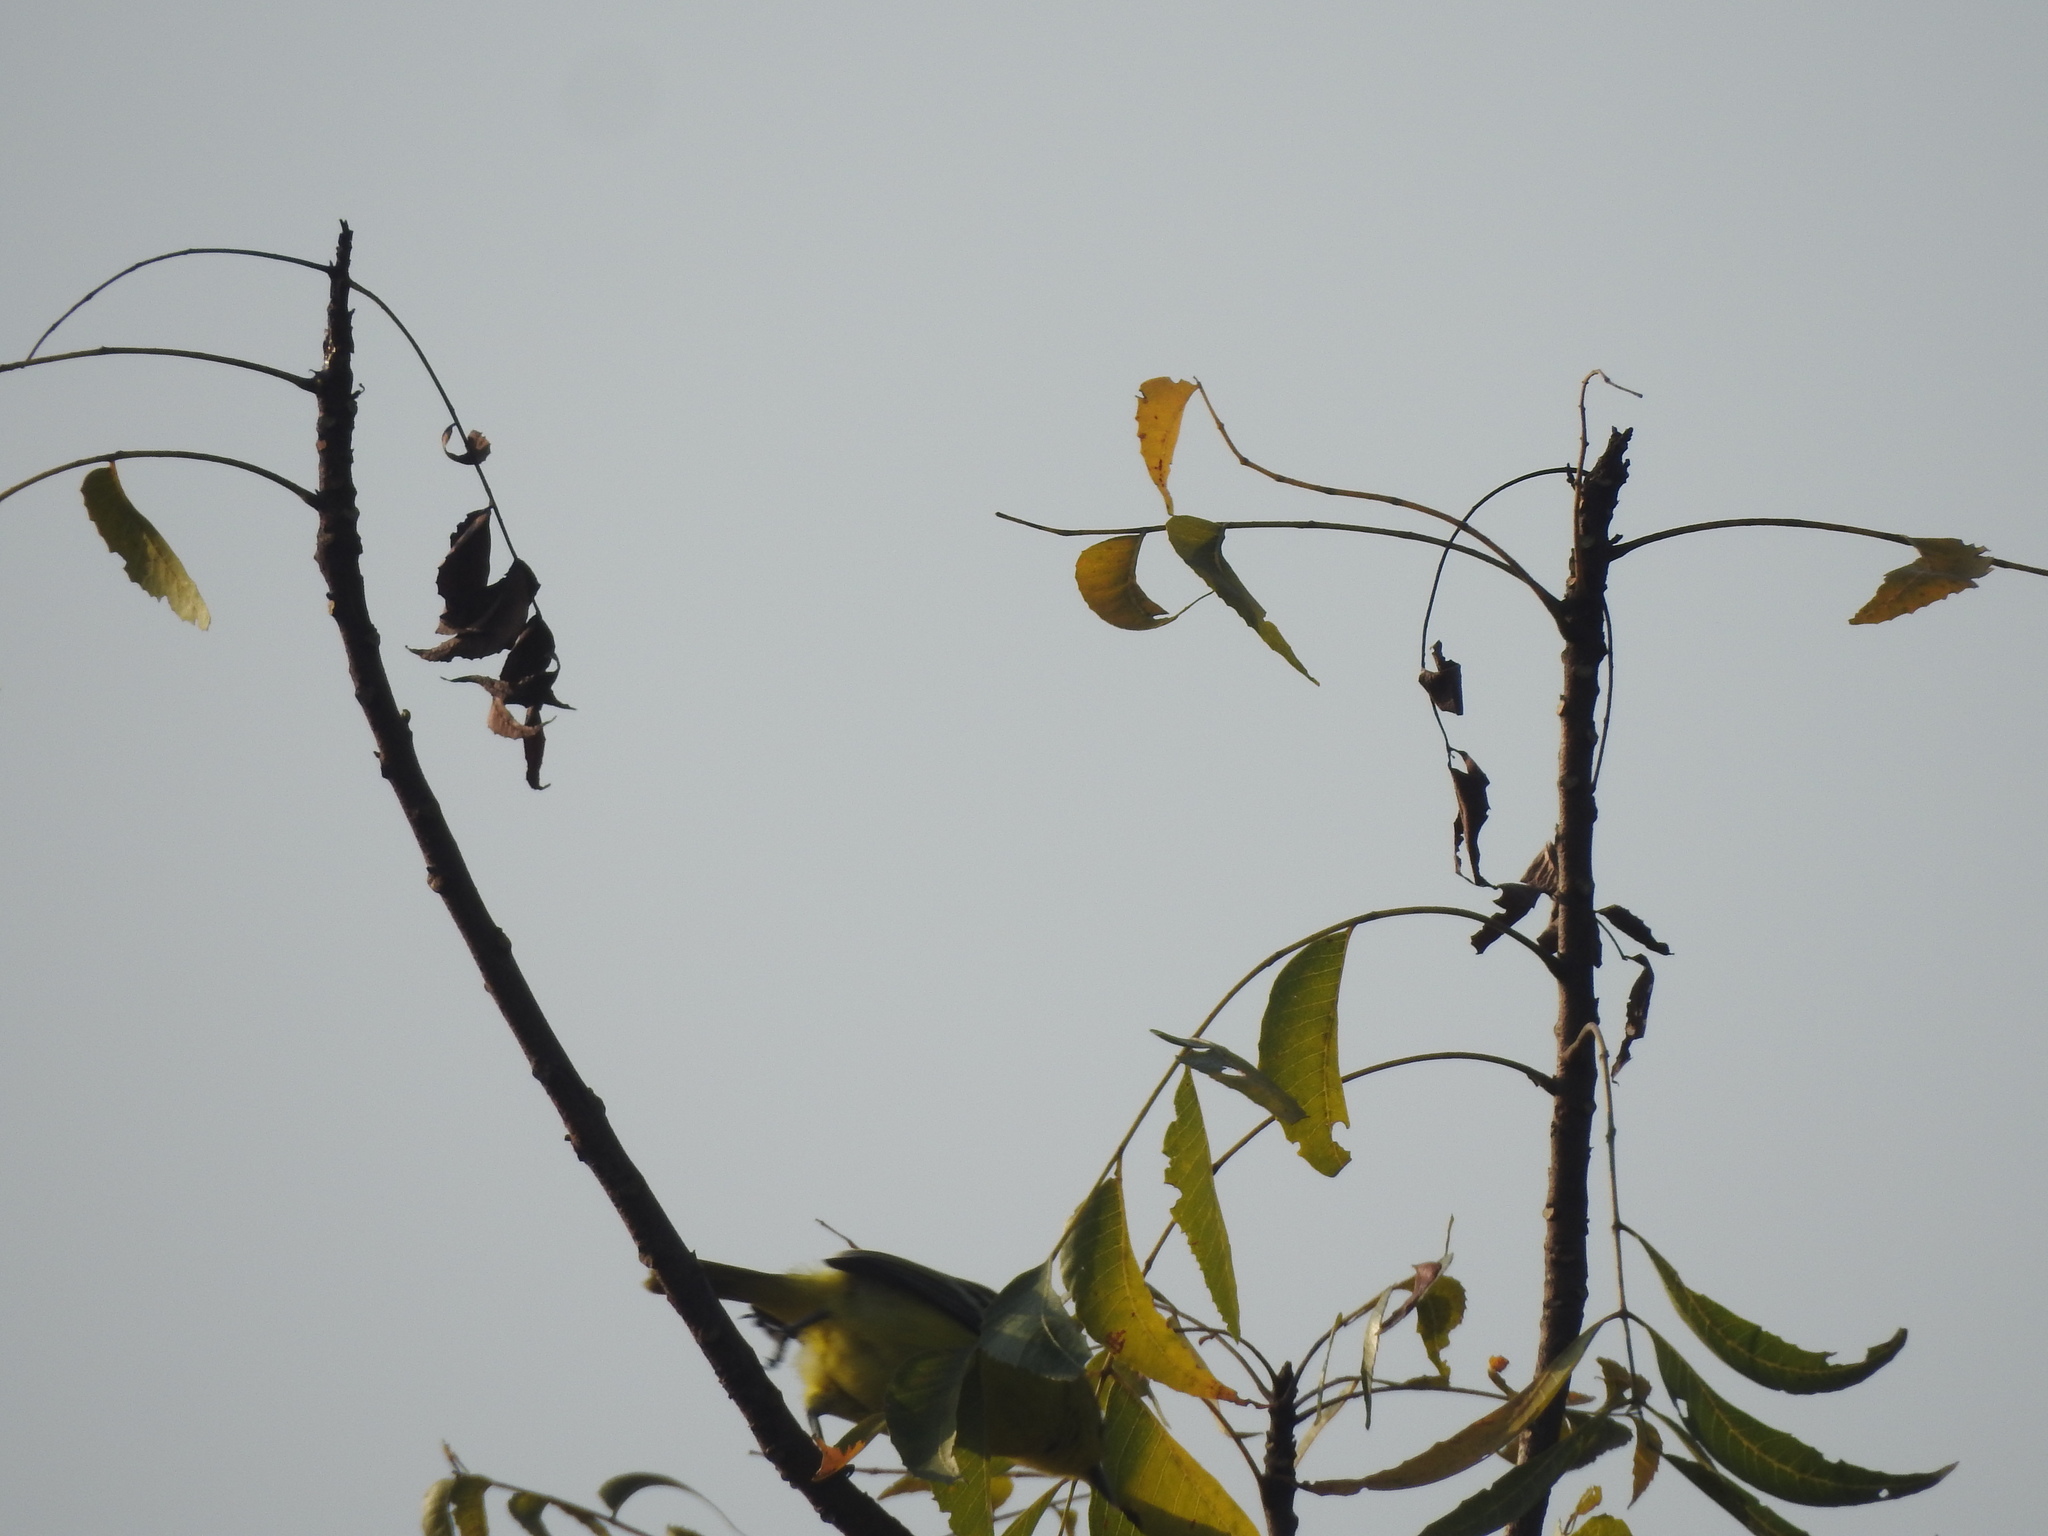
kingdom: Animalia
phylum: Chordata
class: Aves
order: Passeriformes
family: Aegithinidae
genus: Aegithina
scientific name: Aegithina tiphia
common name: Common iora
